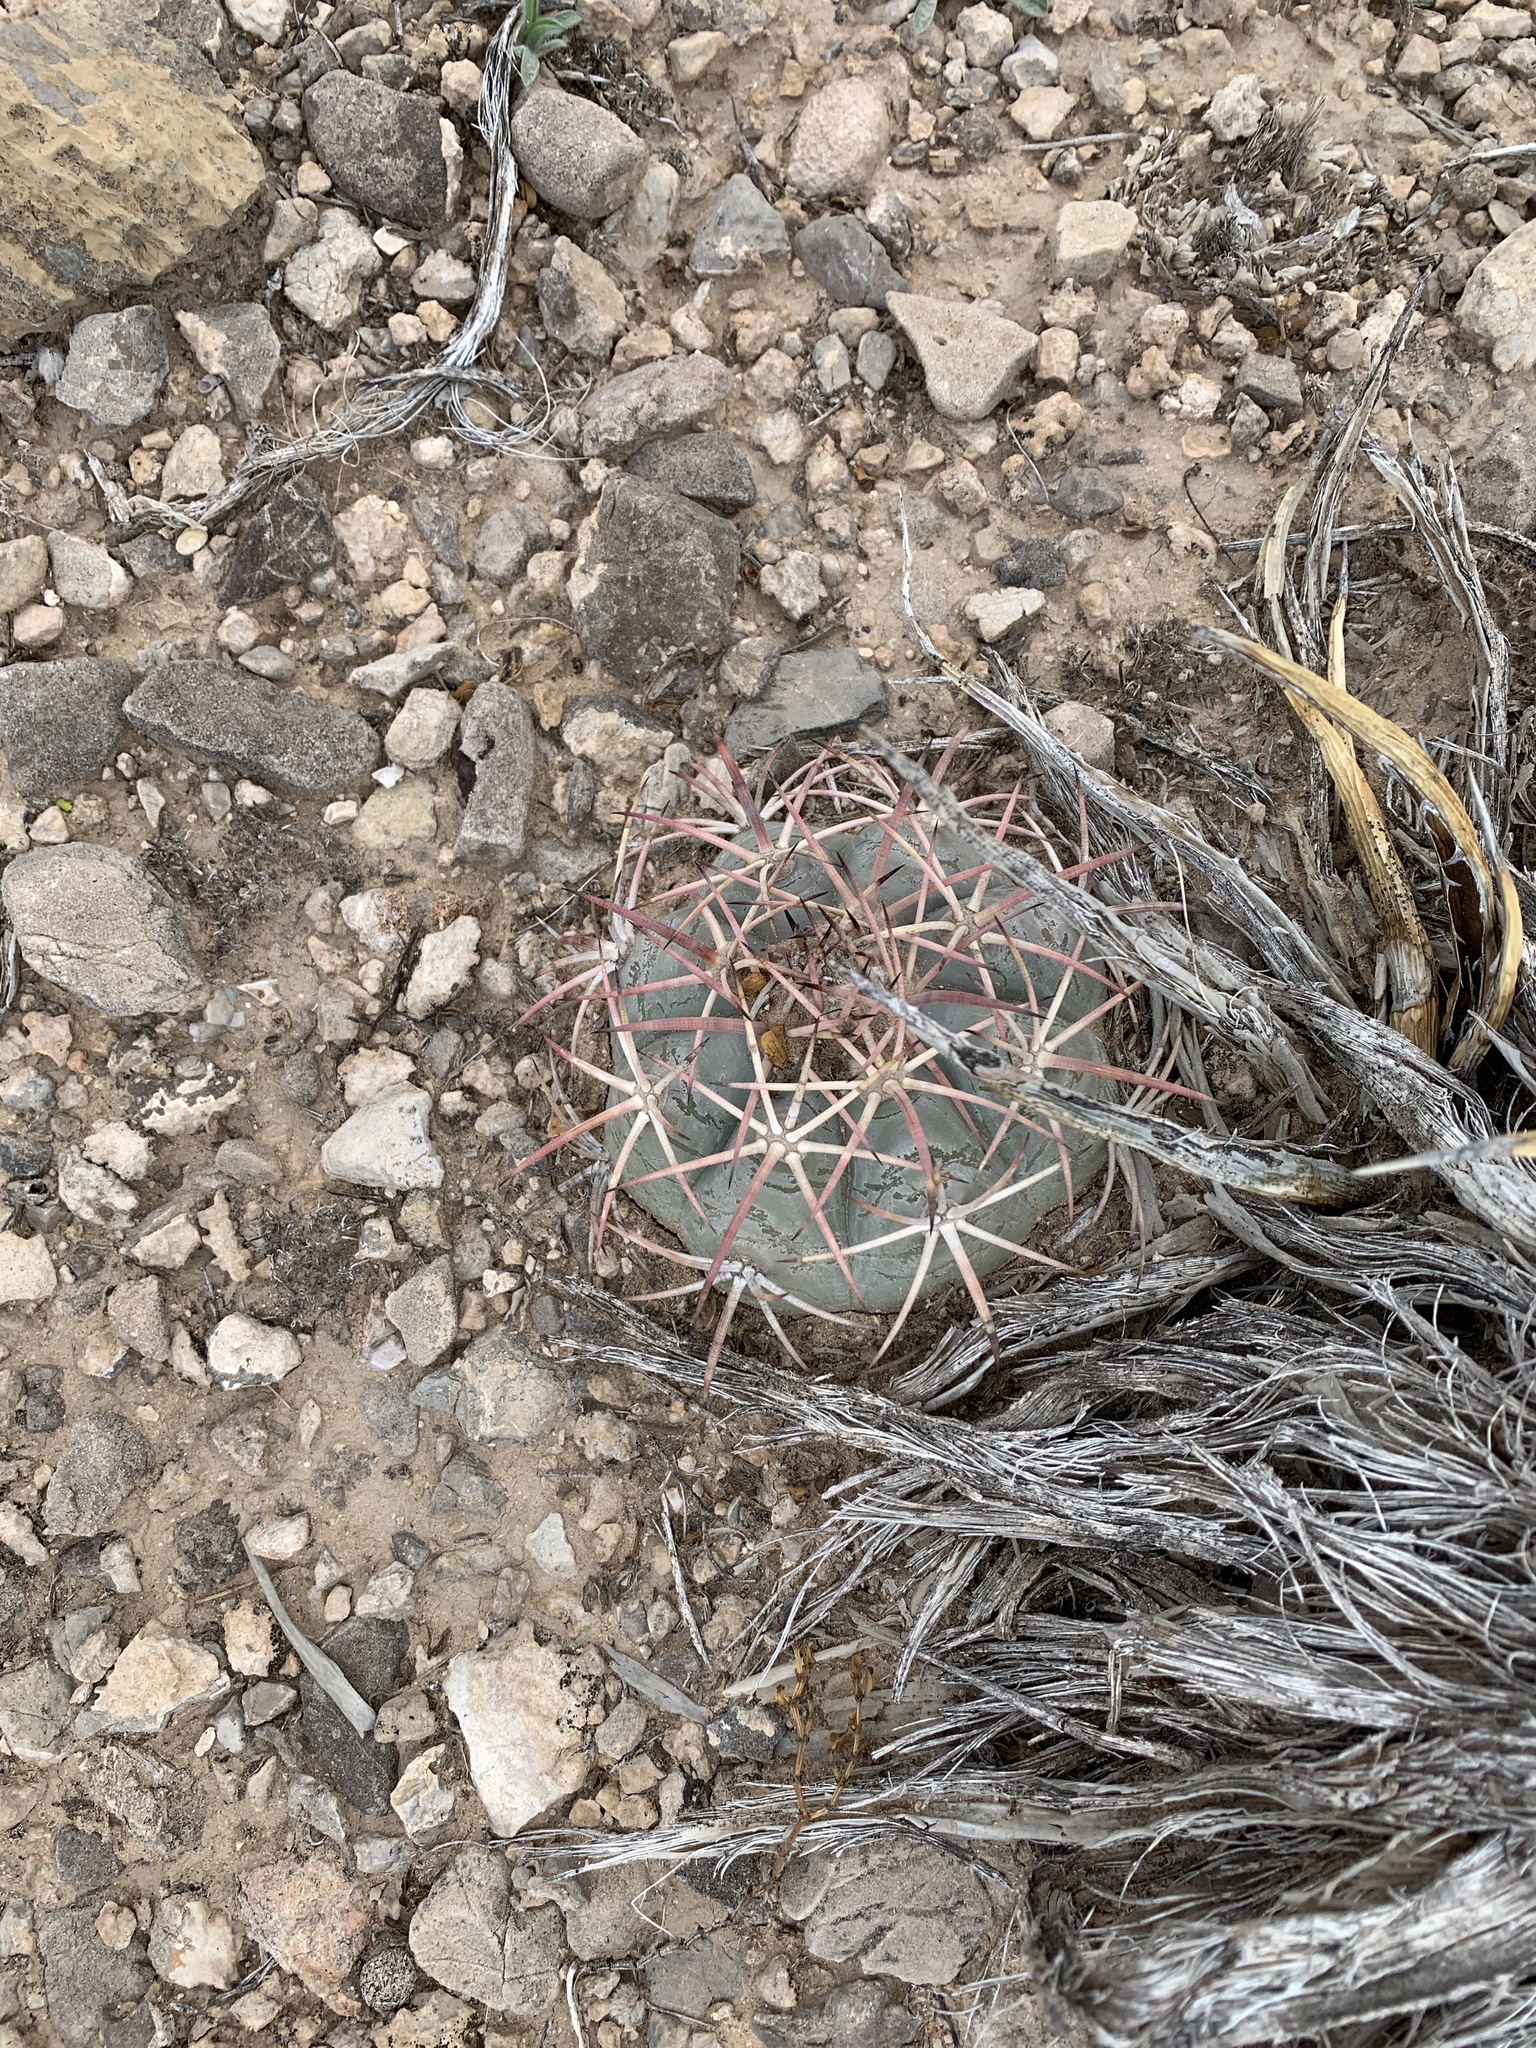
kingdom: Plantae
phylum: Tracheophyta
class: Magnoliopsida
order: Caryophyllales
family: Cactaceae
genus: Echinocactus
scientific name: Echinocactus horizonthalonius
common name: Devilshead
